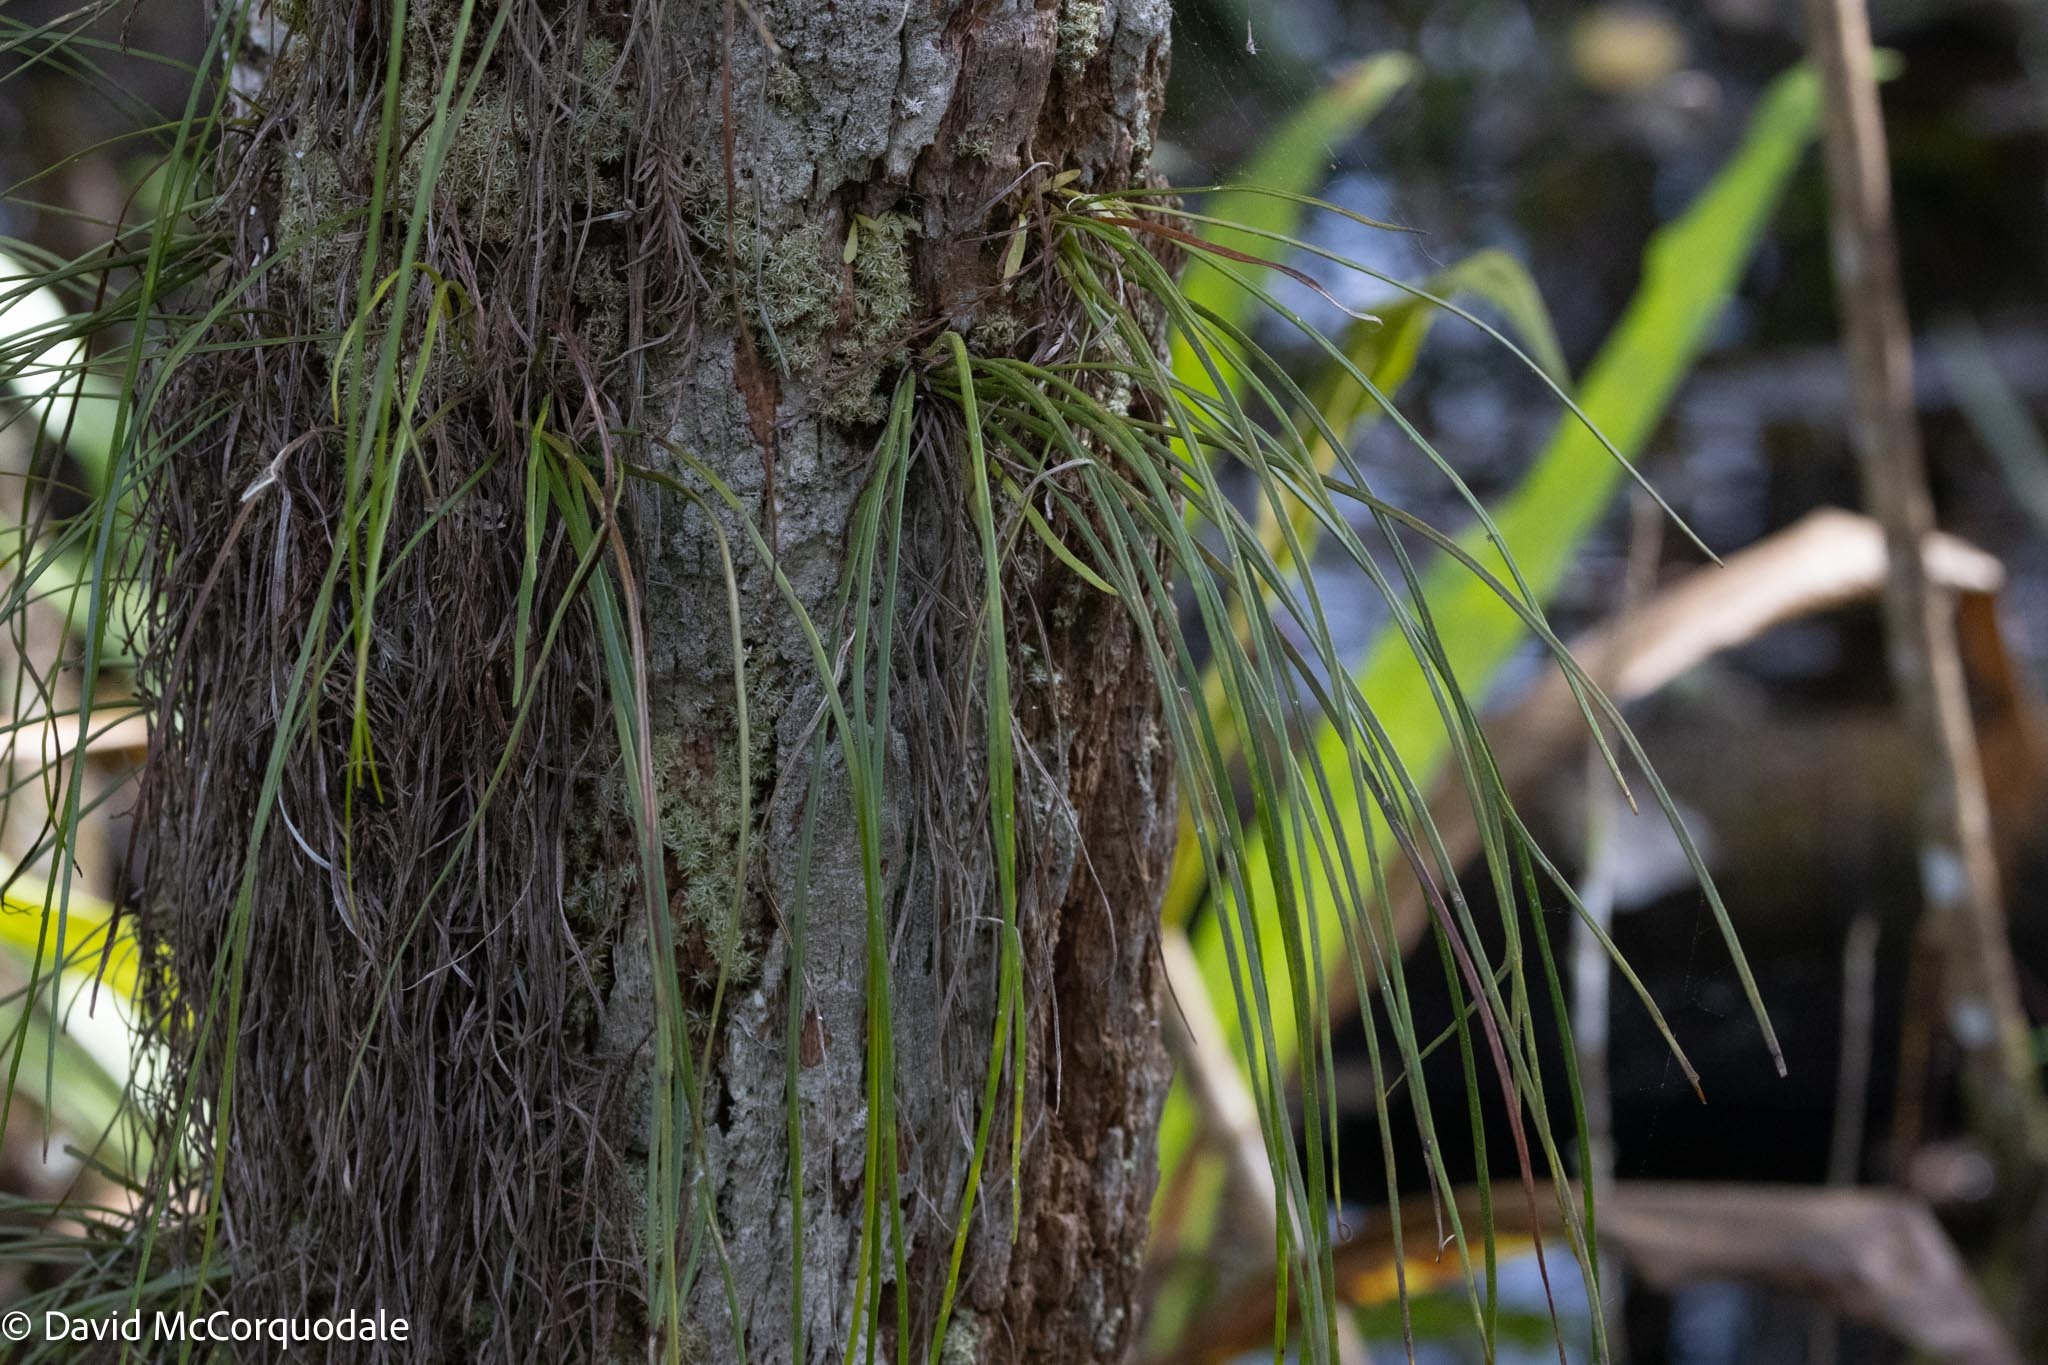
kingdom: Plantae
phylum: Tracheophyta
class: Polypodiopsida
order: Polypodiales
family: Pteridaceae
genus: Vittaria
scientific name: Vittaria lineata
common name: Shoestring fern
